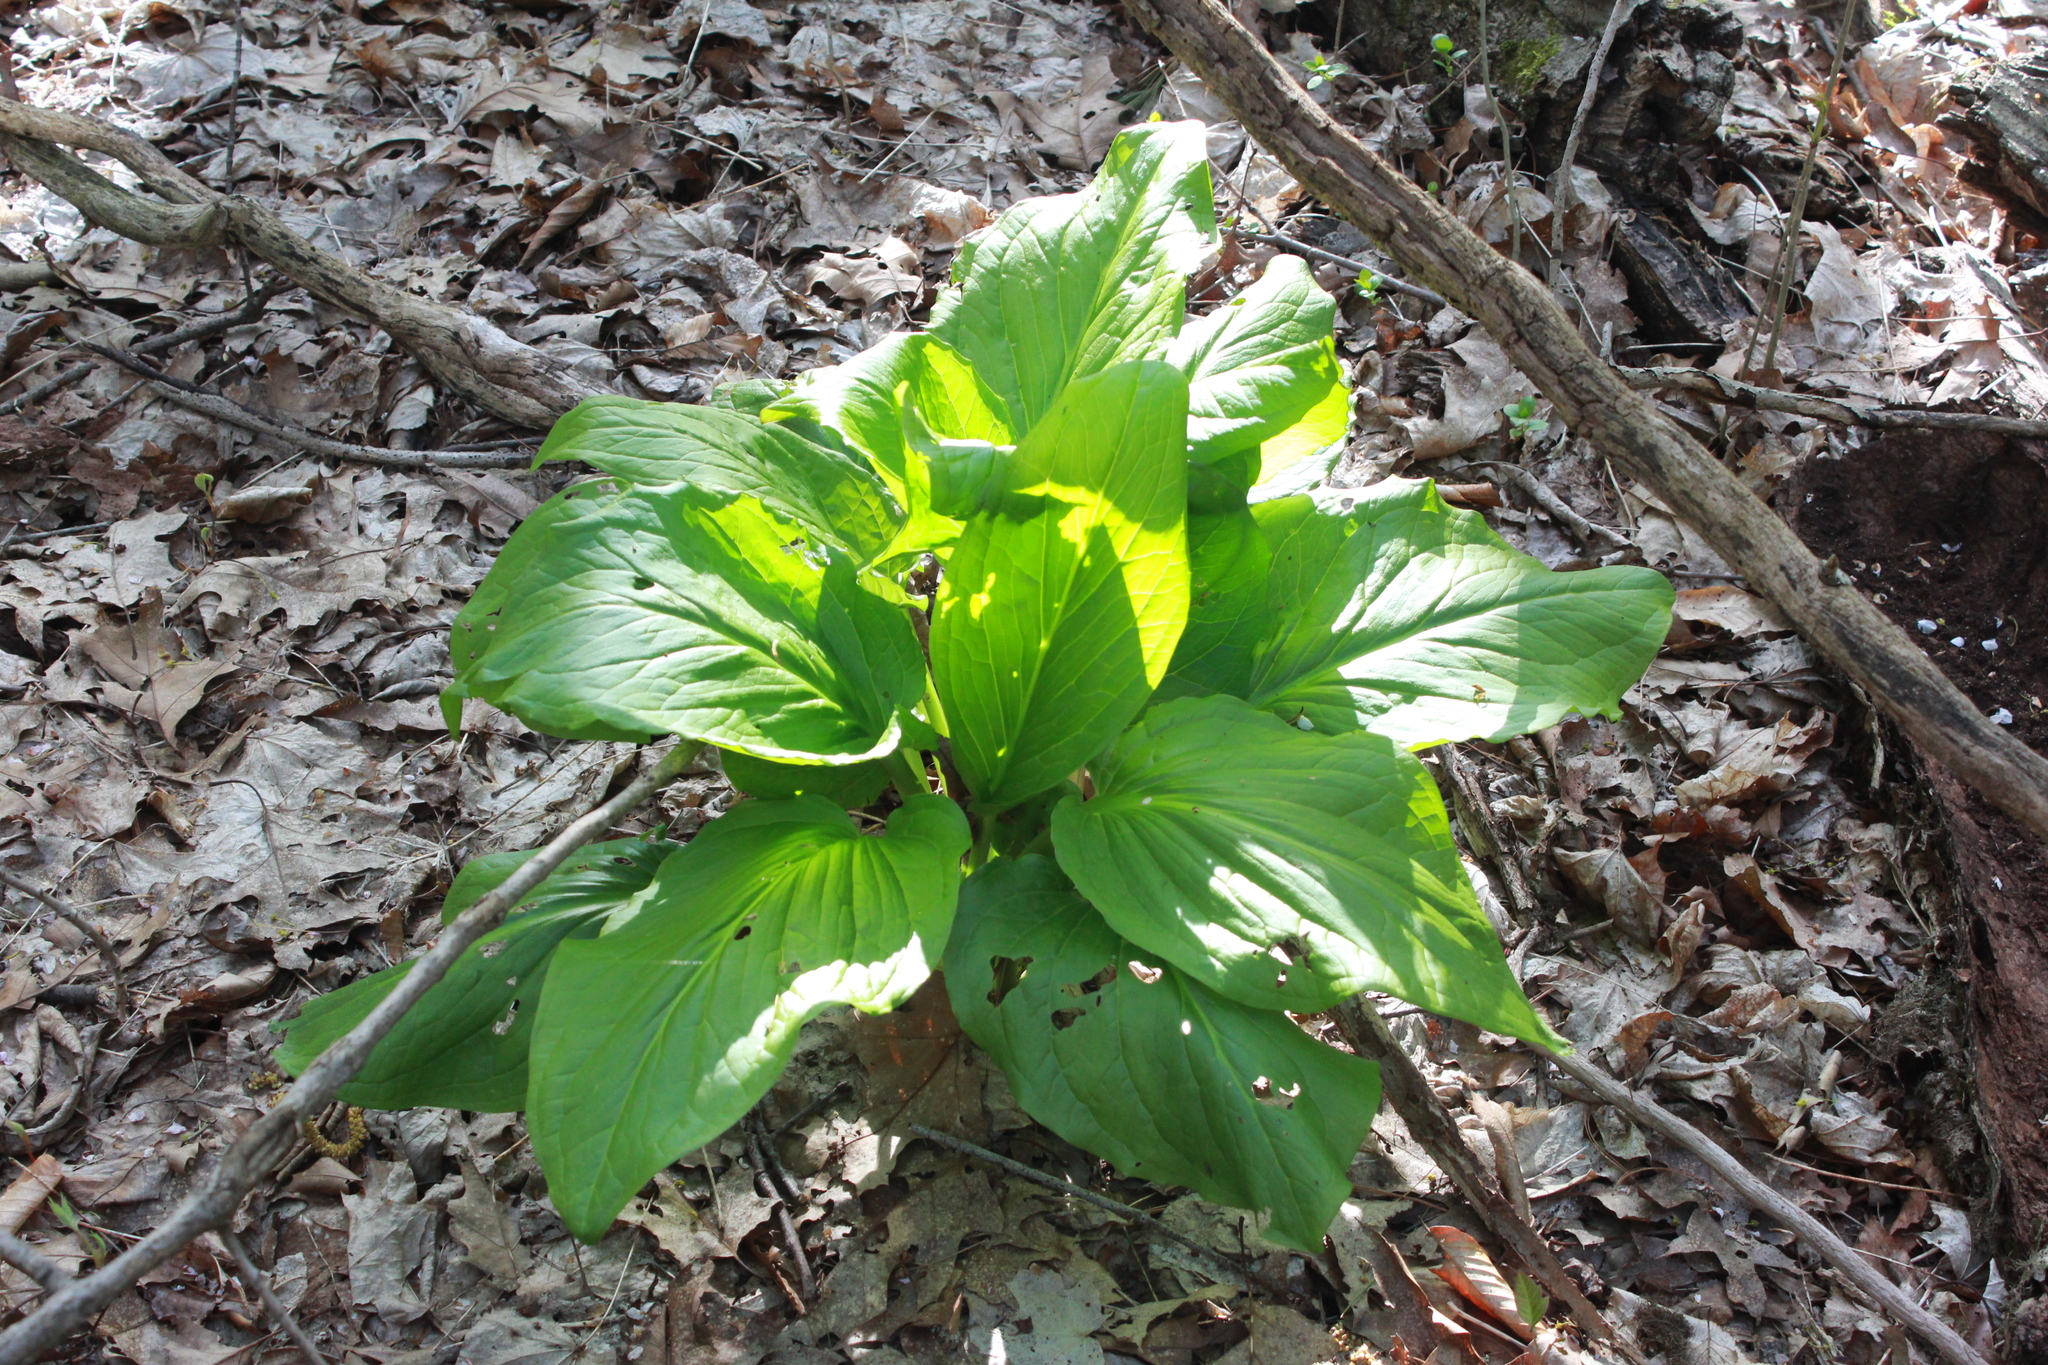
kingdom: Plantae
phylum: Tracheophyta
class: Liliopsida
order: Alismatales
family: Araceae
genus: Symplocarpus
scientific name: Symplocarpus foetidus
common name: Eastern skunk cabbage
